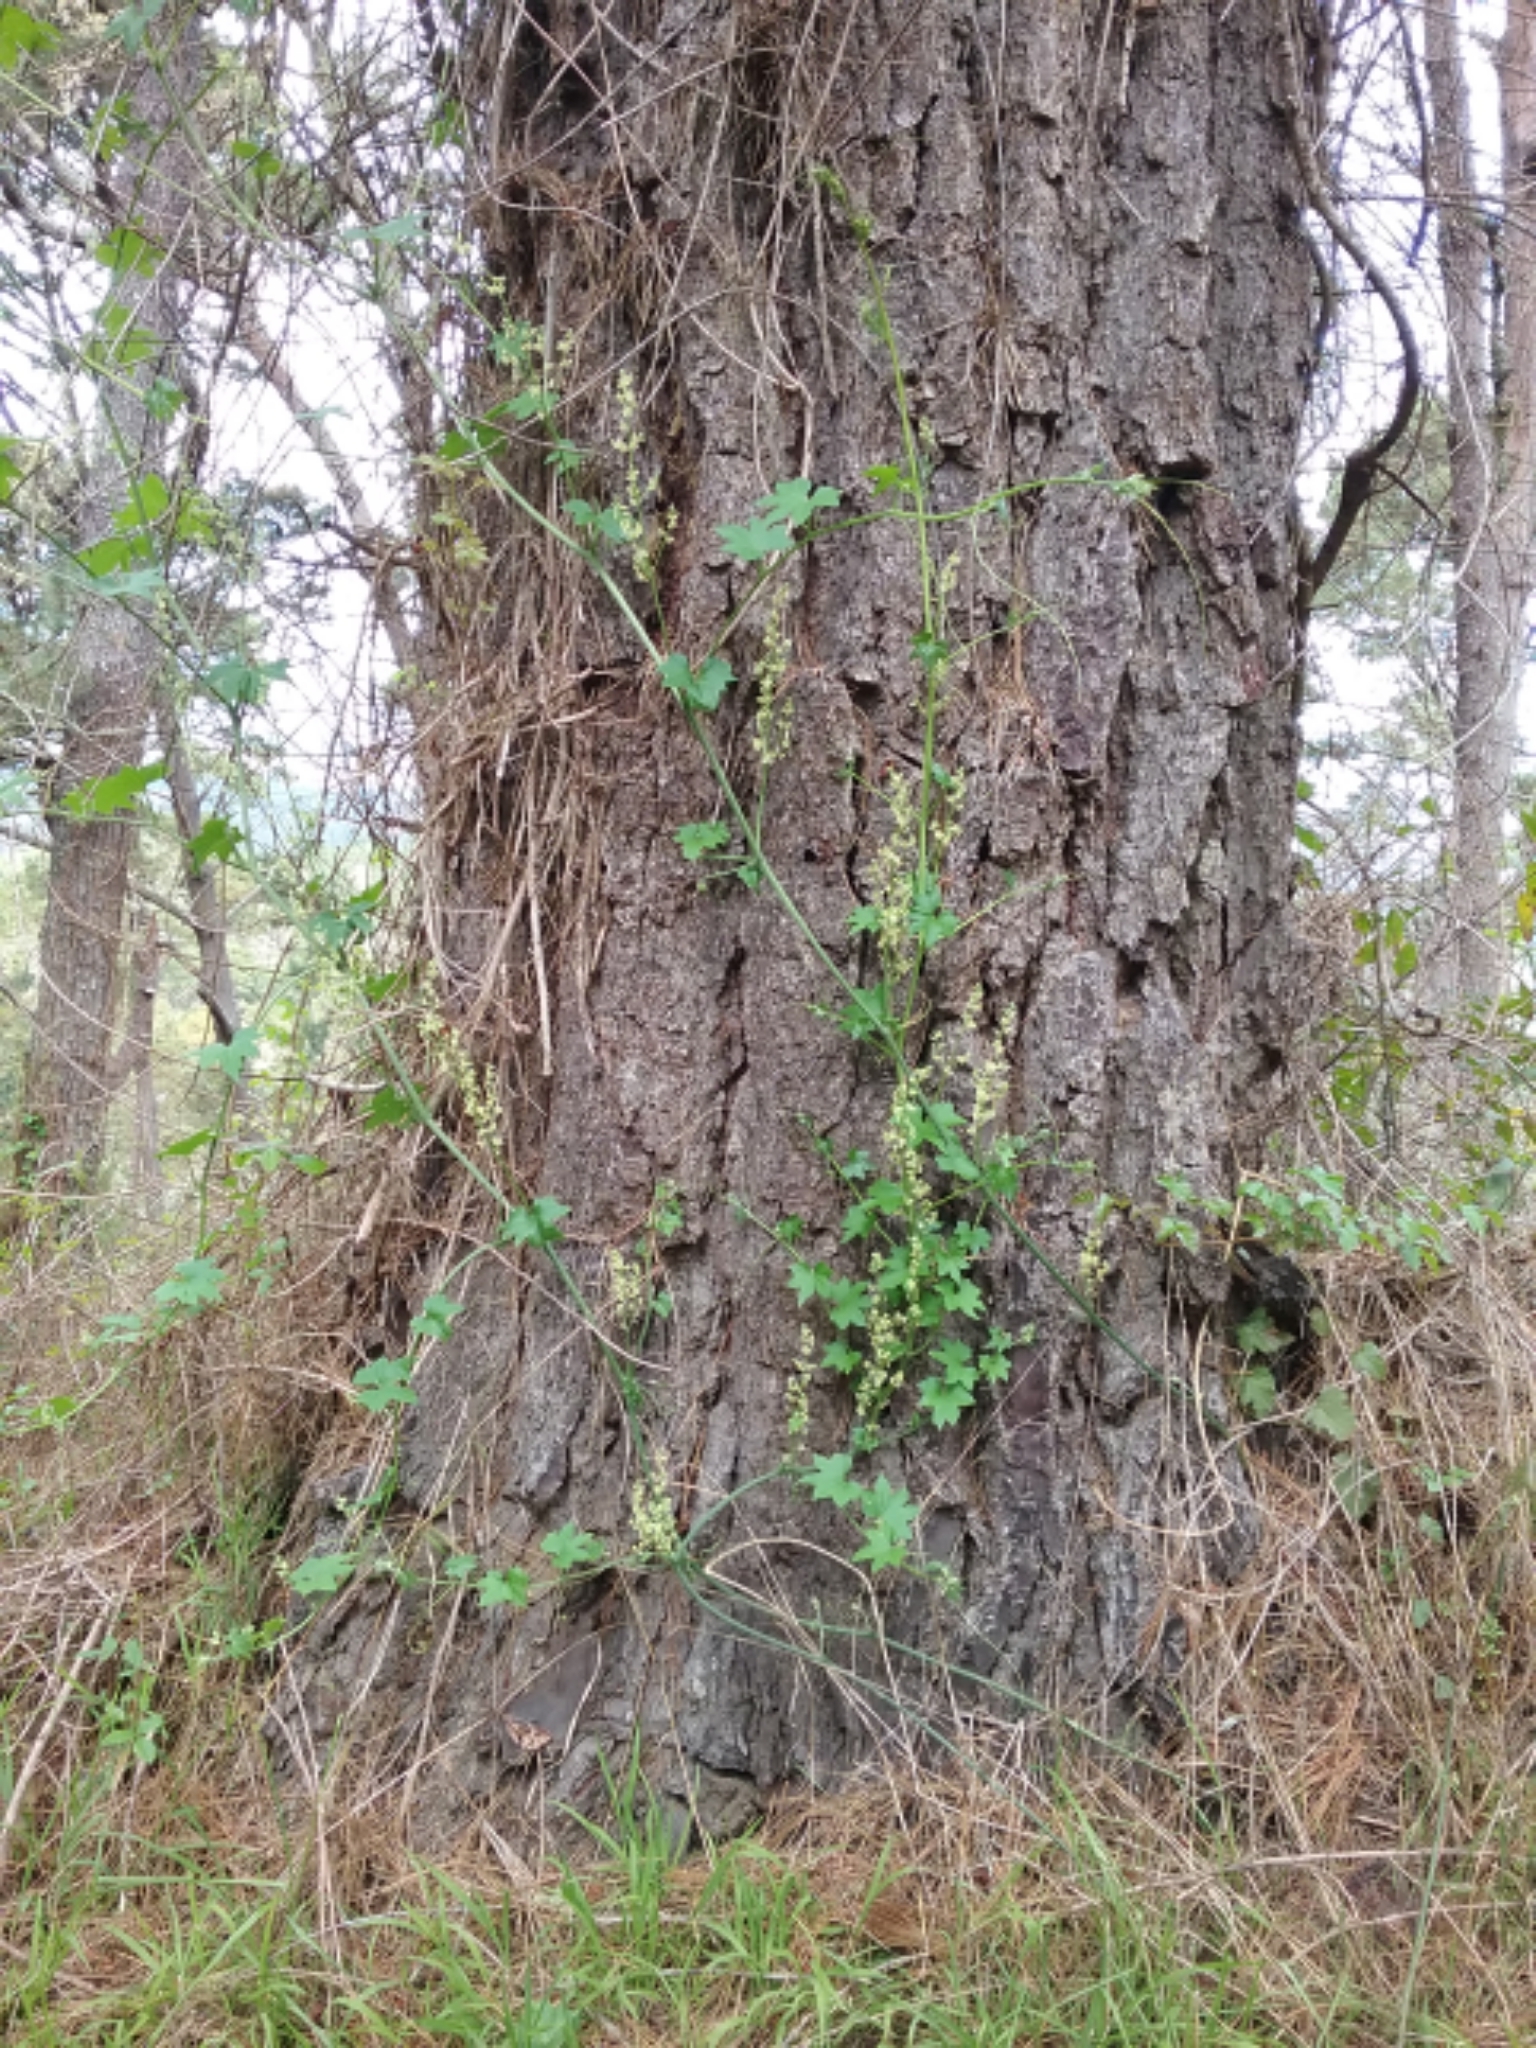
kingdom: Plantae
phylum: Tracheophyta
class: Magnoliopsida
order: Cucurbitales
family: Cucurbitaceae
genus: Marah
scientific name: Marah fabacea
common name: California manroot
